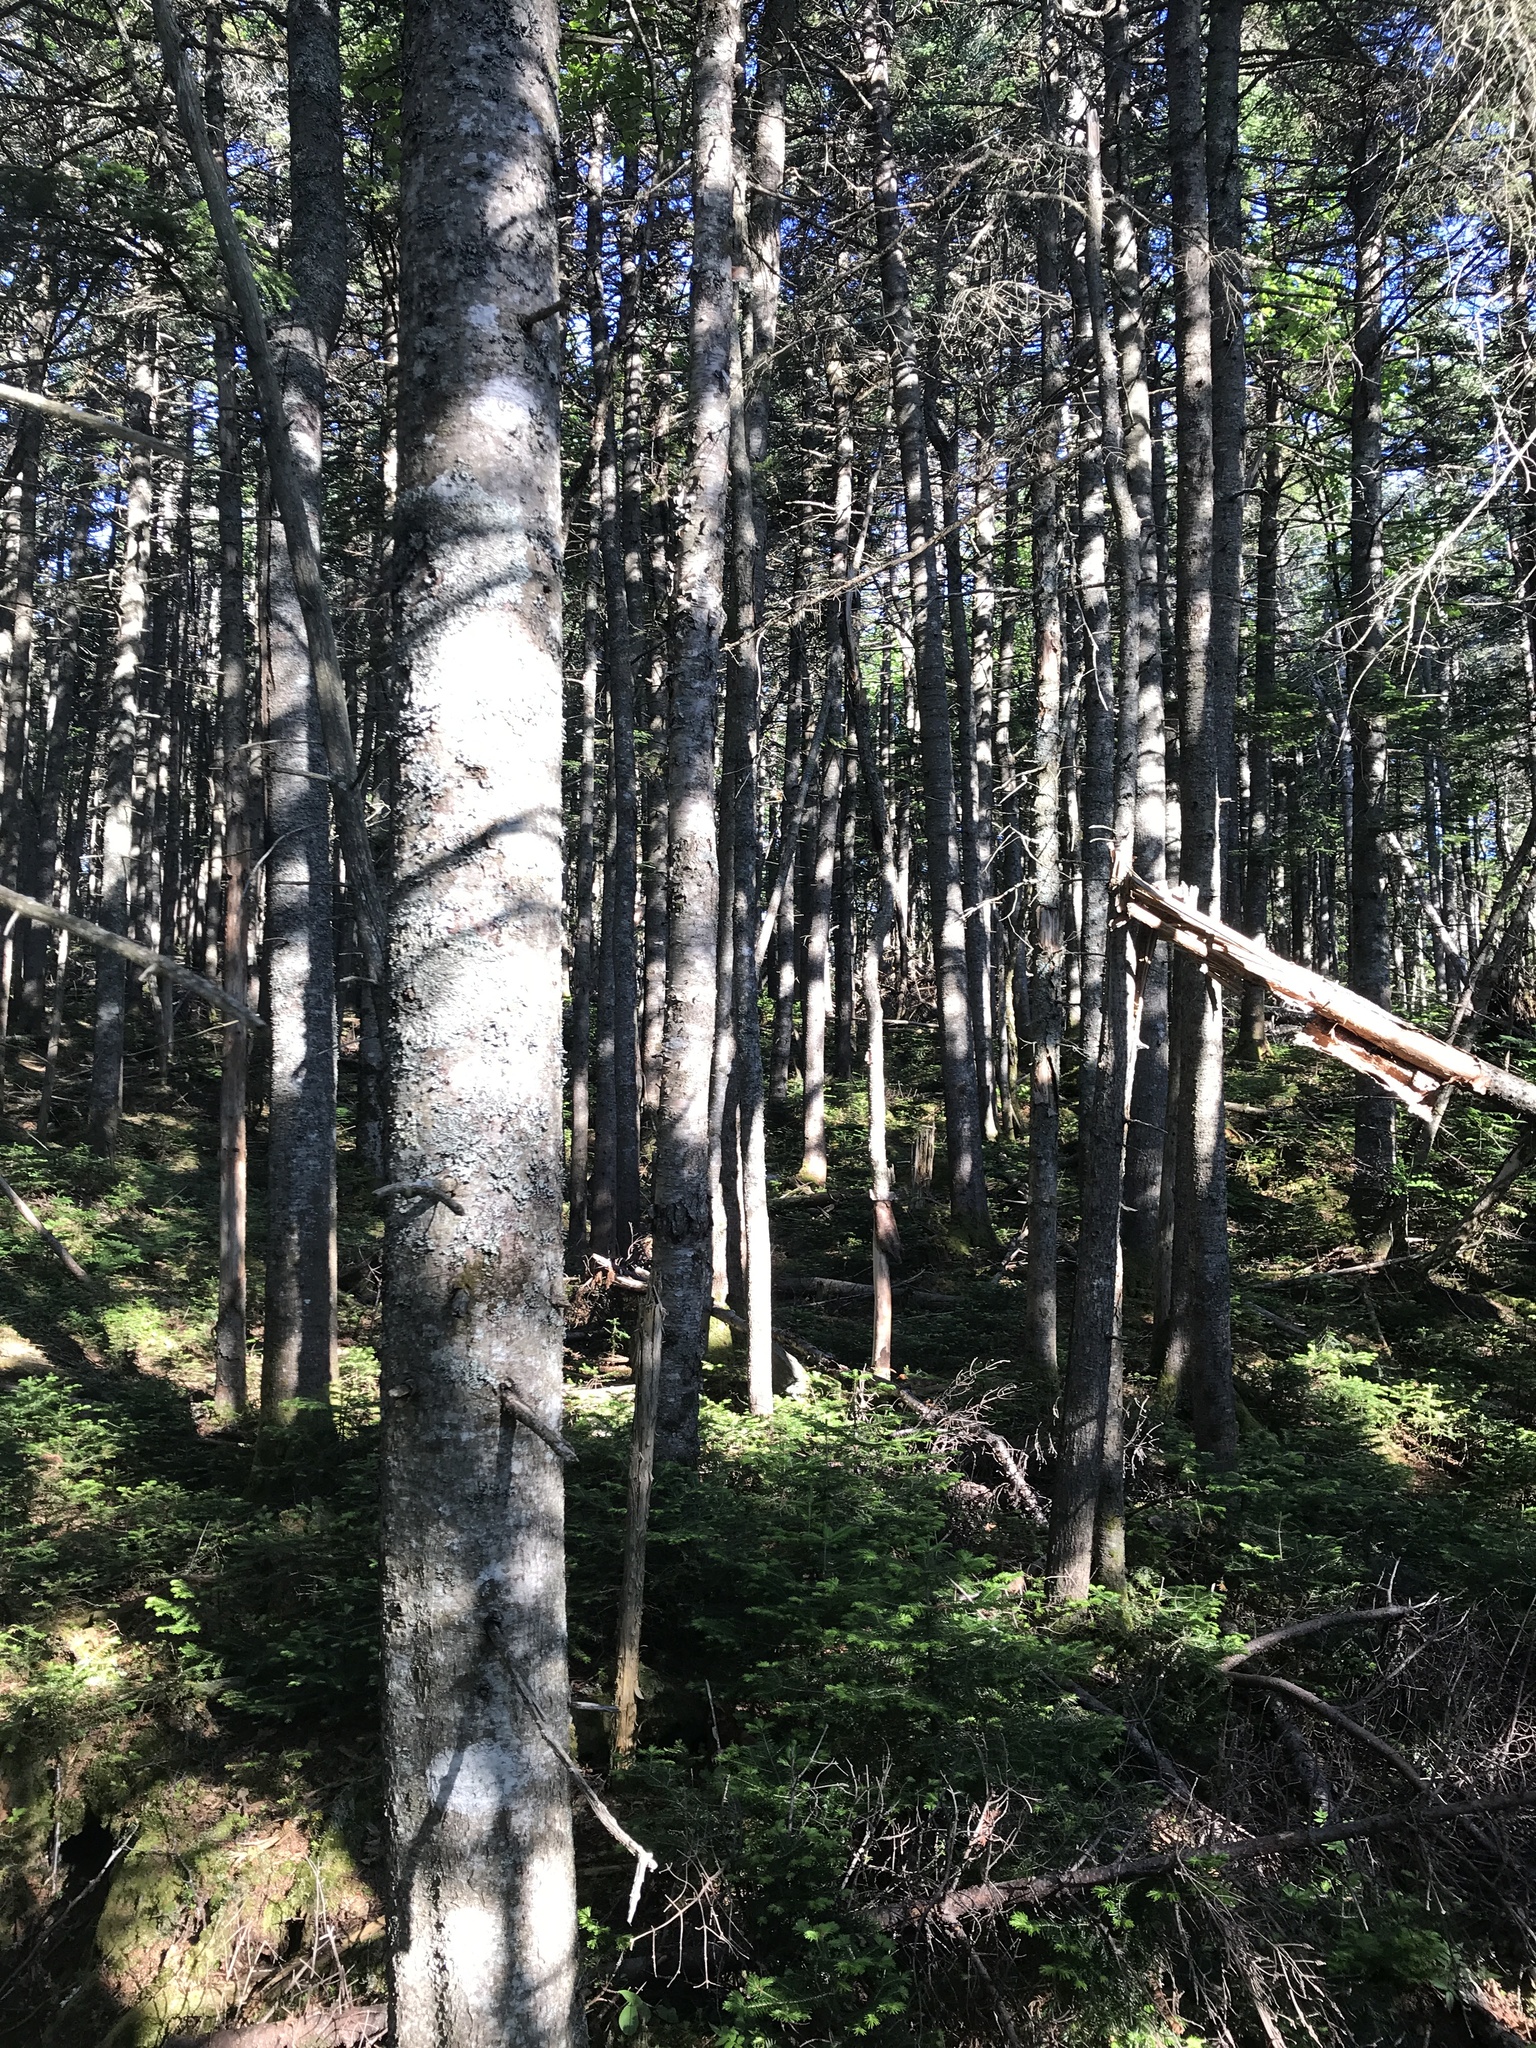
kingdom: Plantae
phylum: Tracheophyta
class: Pinopsida
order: Pinales
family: Pinaceae
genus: Abies
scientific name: Abies balsamea
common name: Balsam fir
